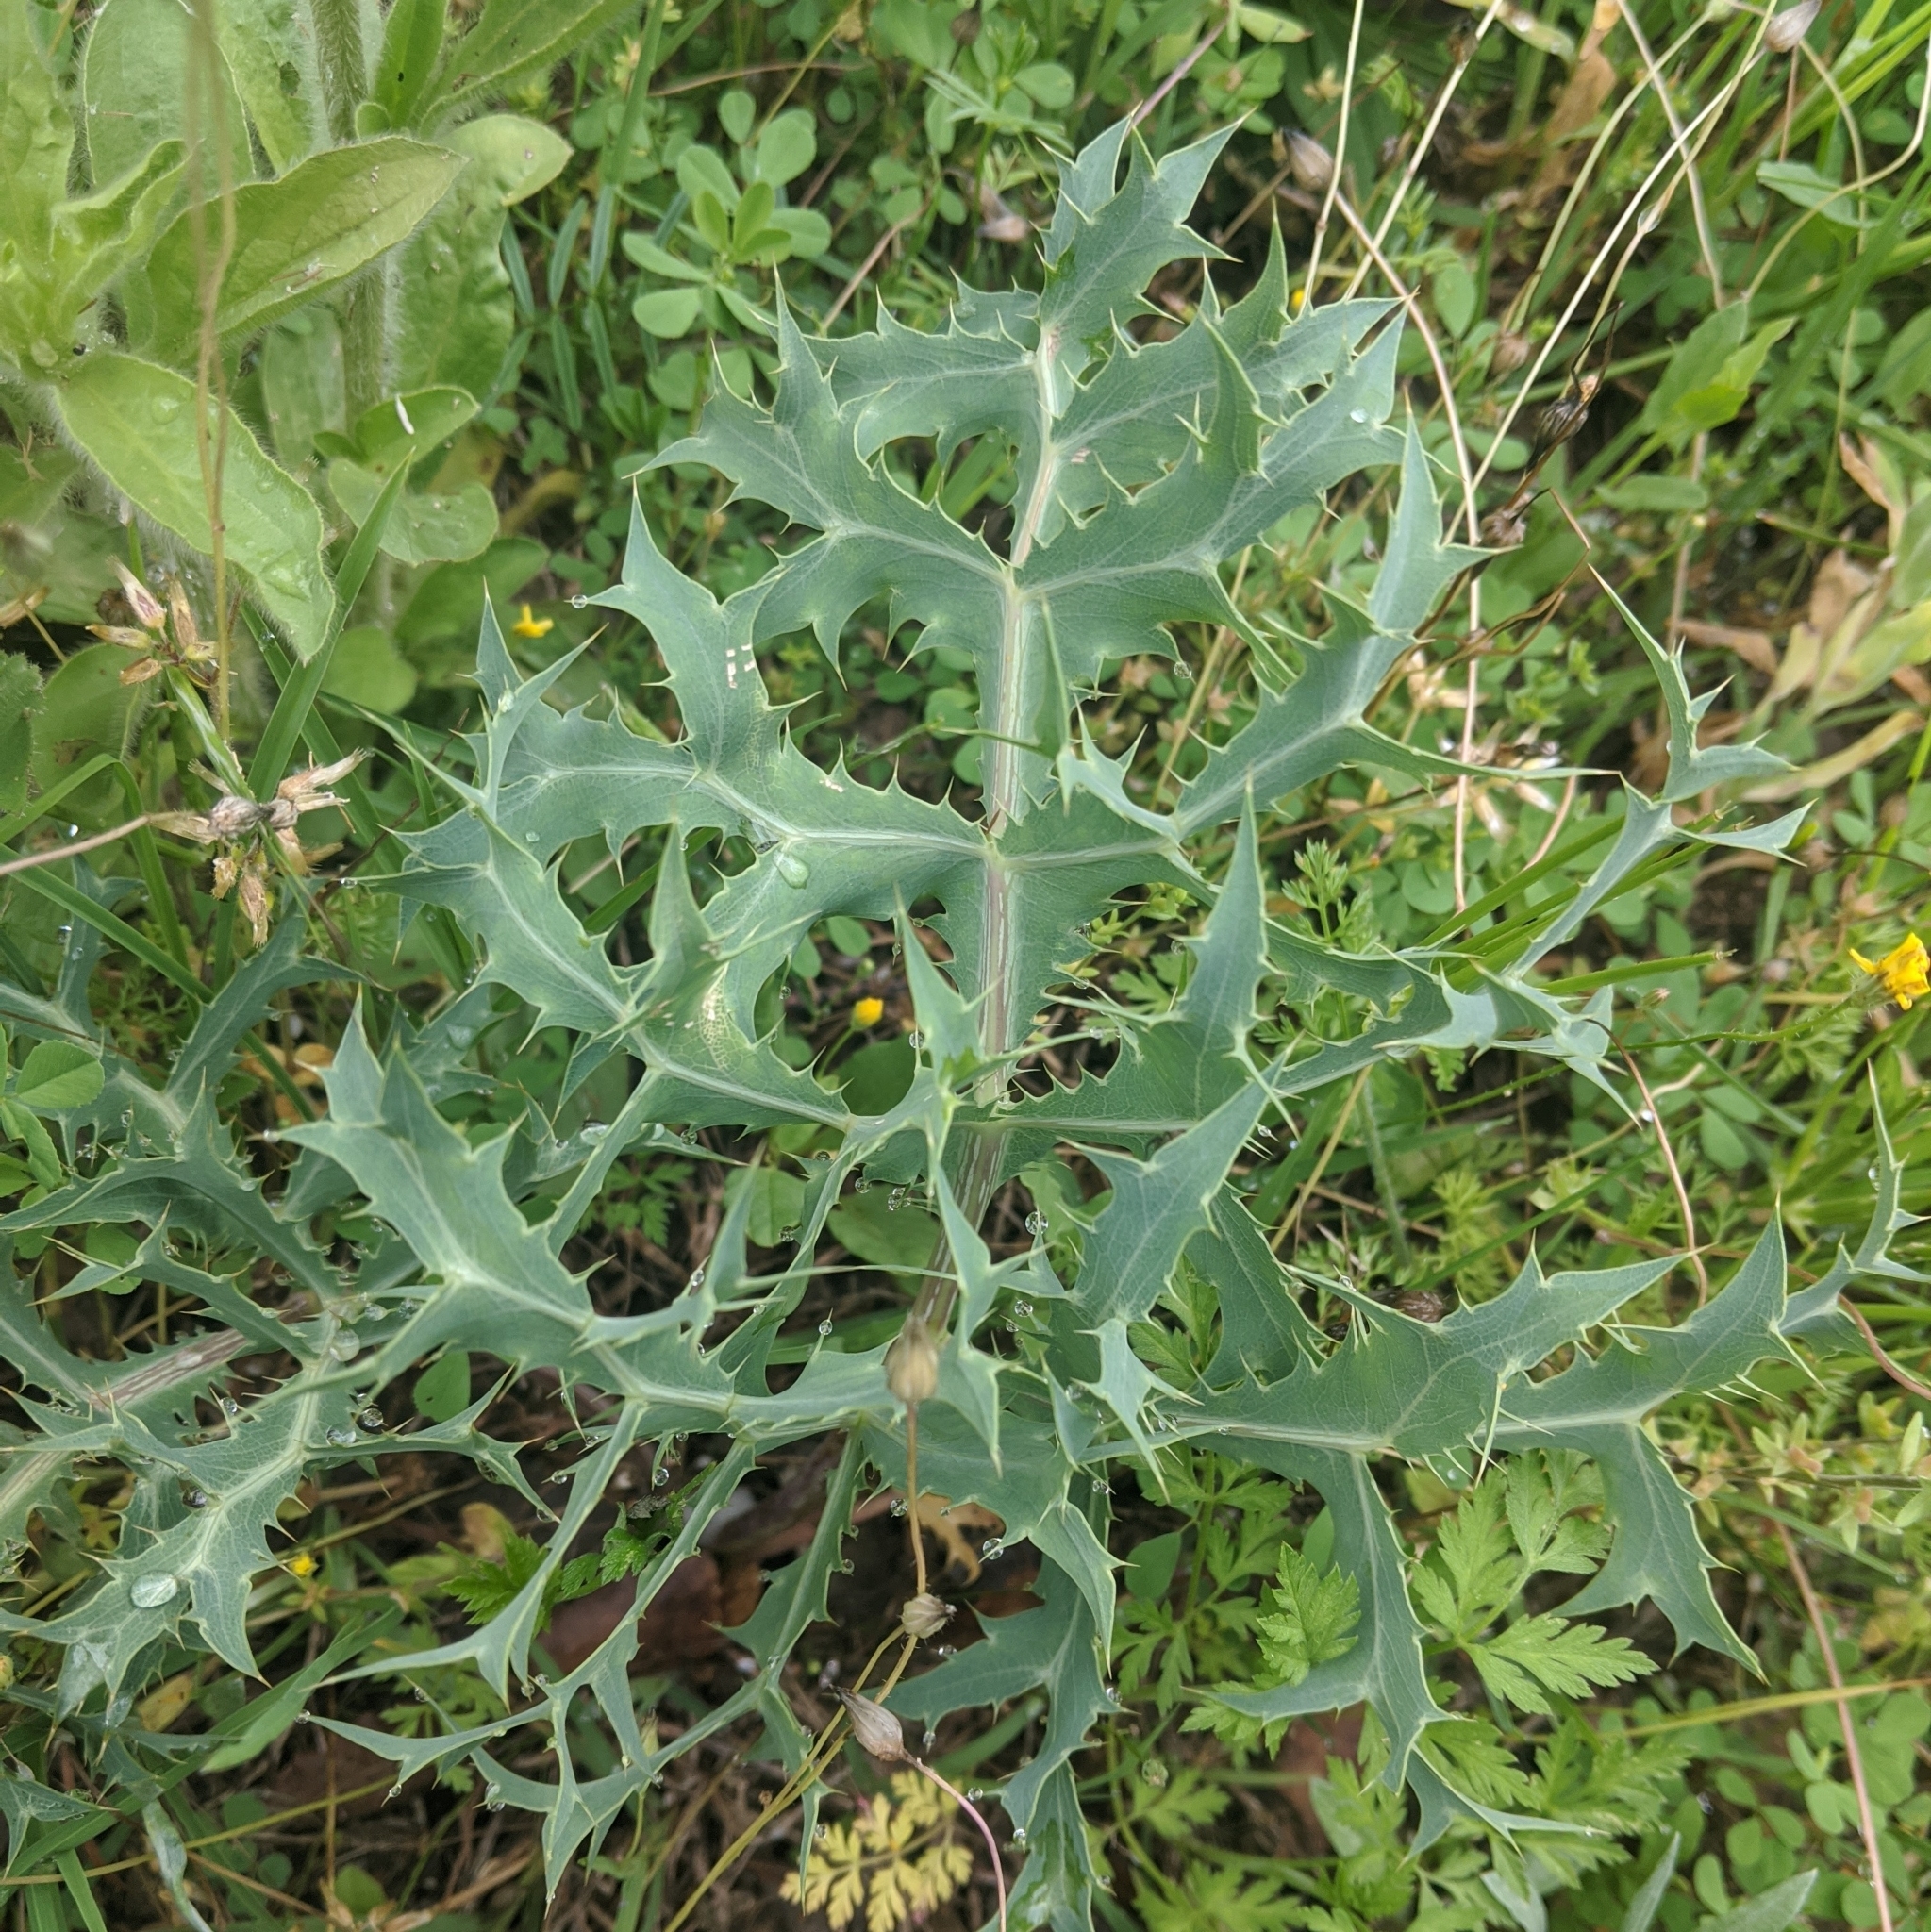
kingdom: Plantae
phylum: Tracheophyta
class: Magnoliopsida
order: Apiales
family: Apiaceae
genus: Eryngium
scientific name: Eryngium campestre
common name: Field eryngo
